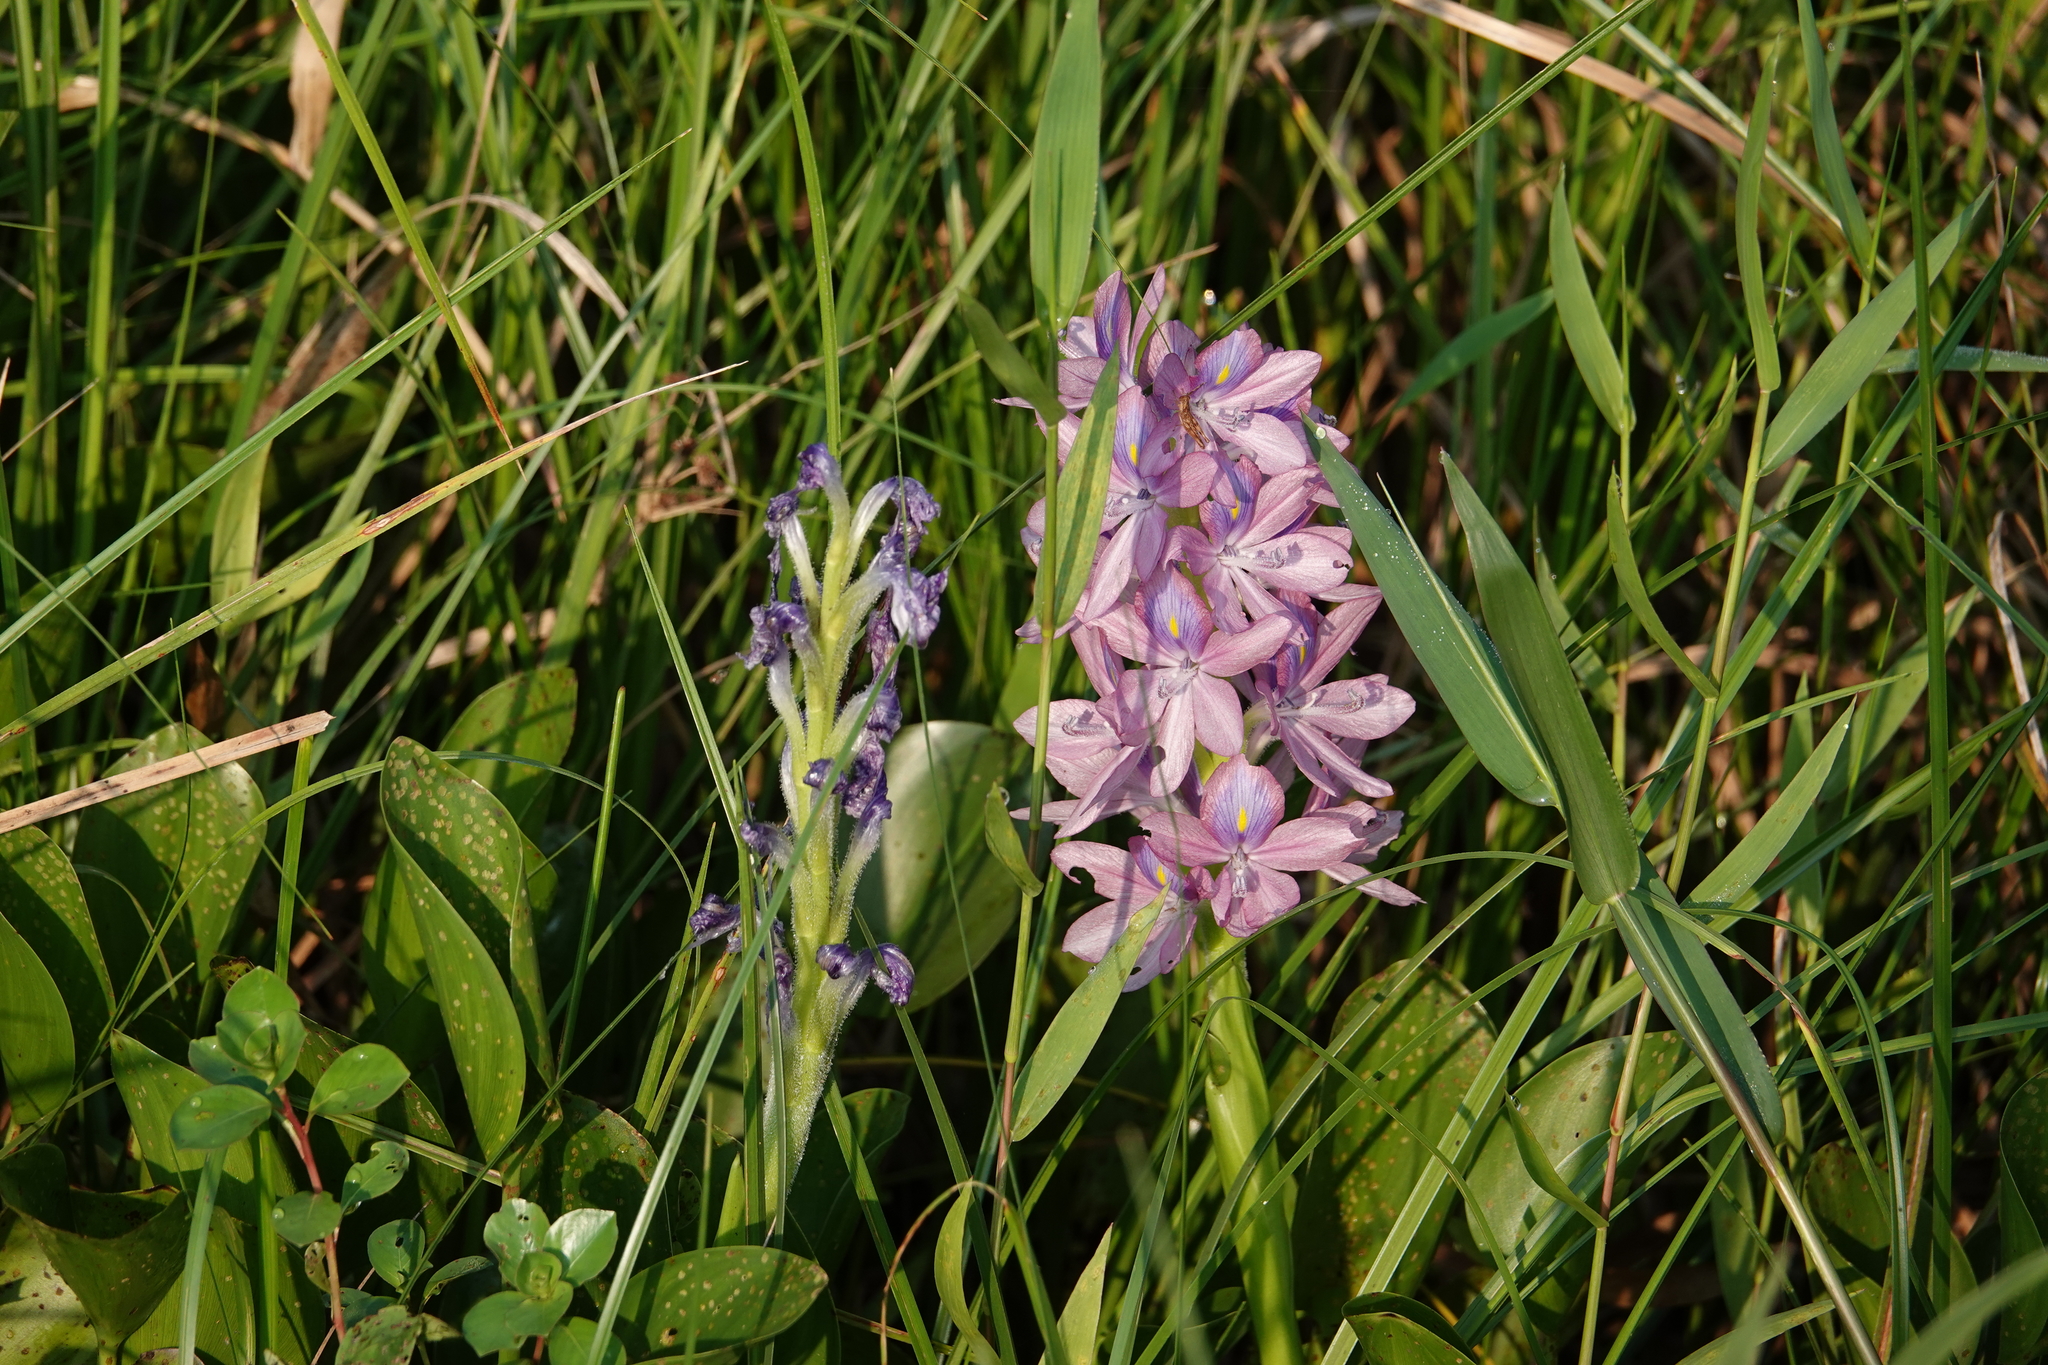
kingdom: Plantae
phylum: Tracheophyta
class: Liliopsida
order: Commelinales
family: Pontederiaceae
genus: Pontederia
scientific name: Pontederia crassipes
